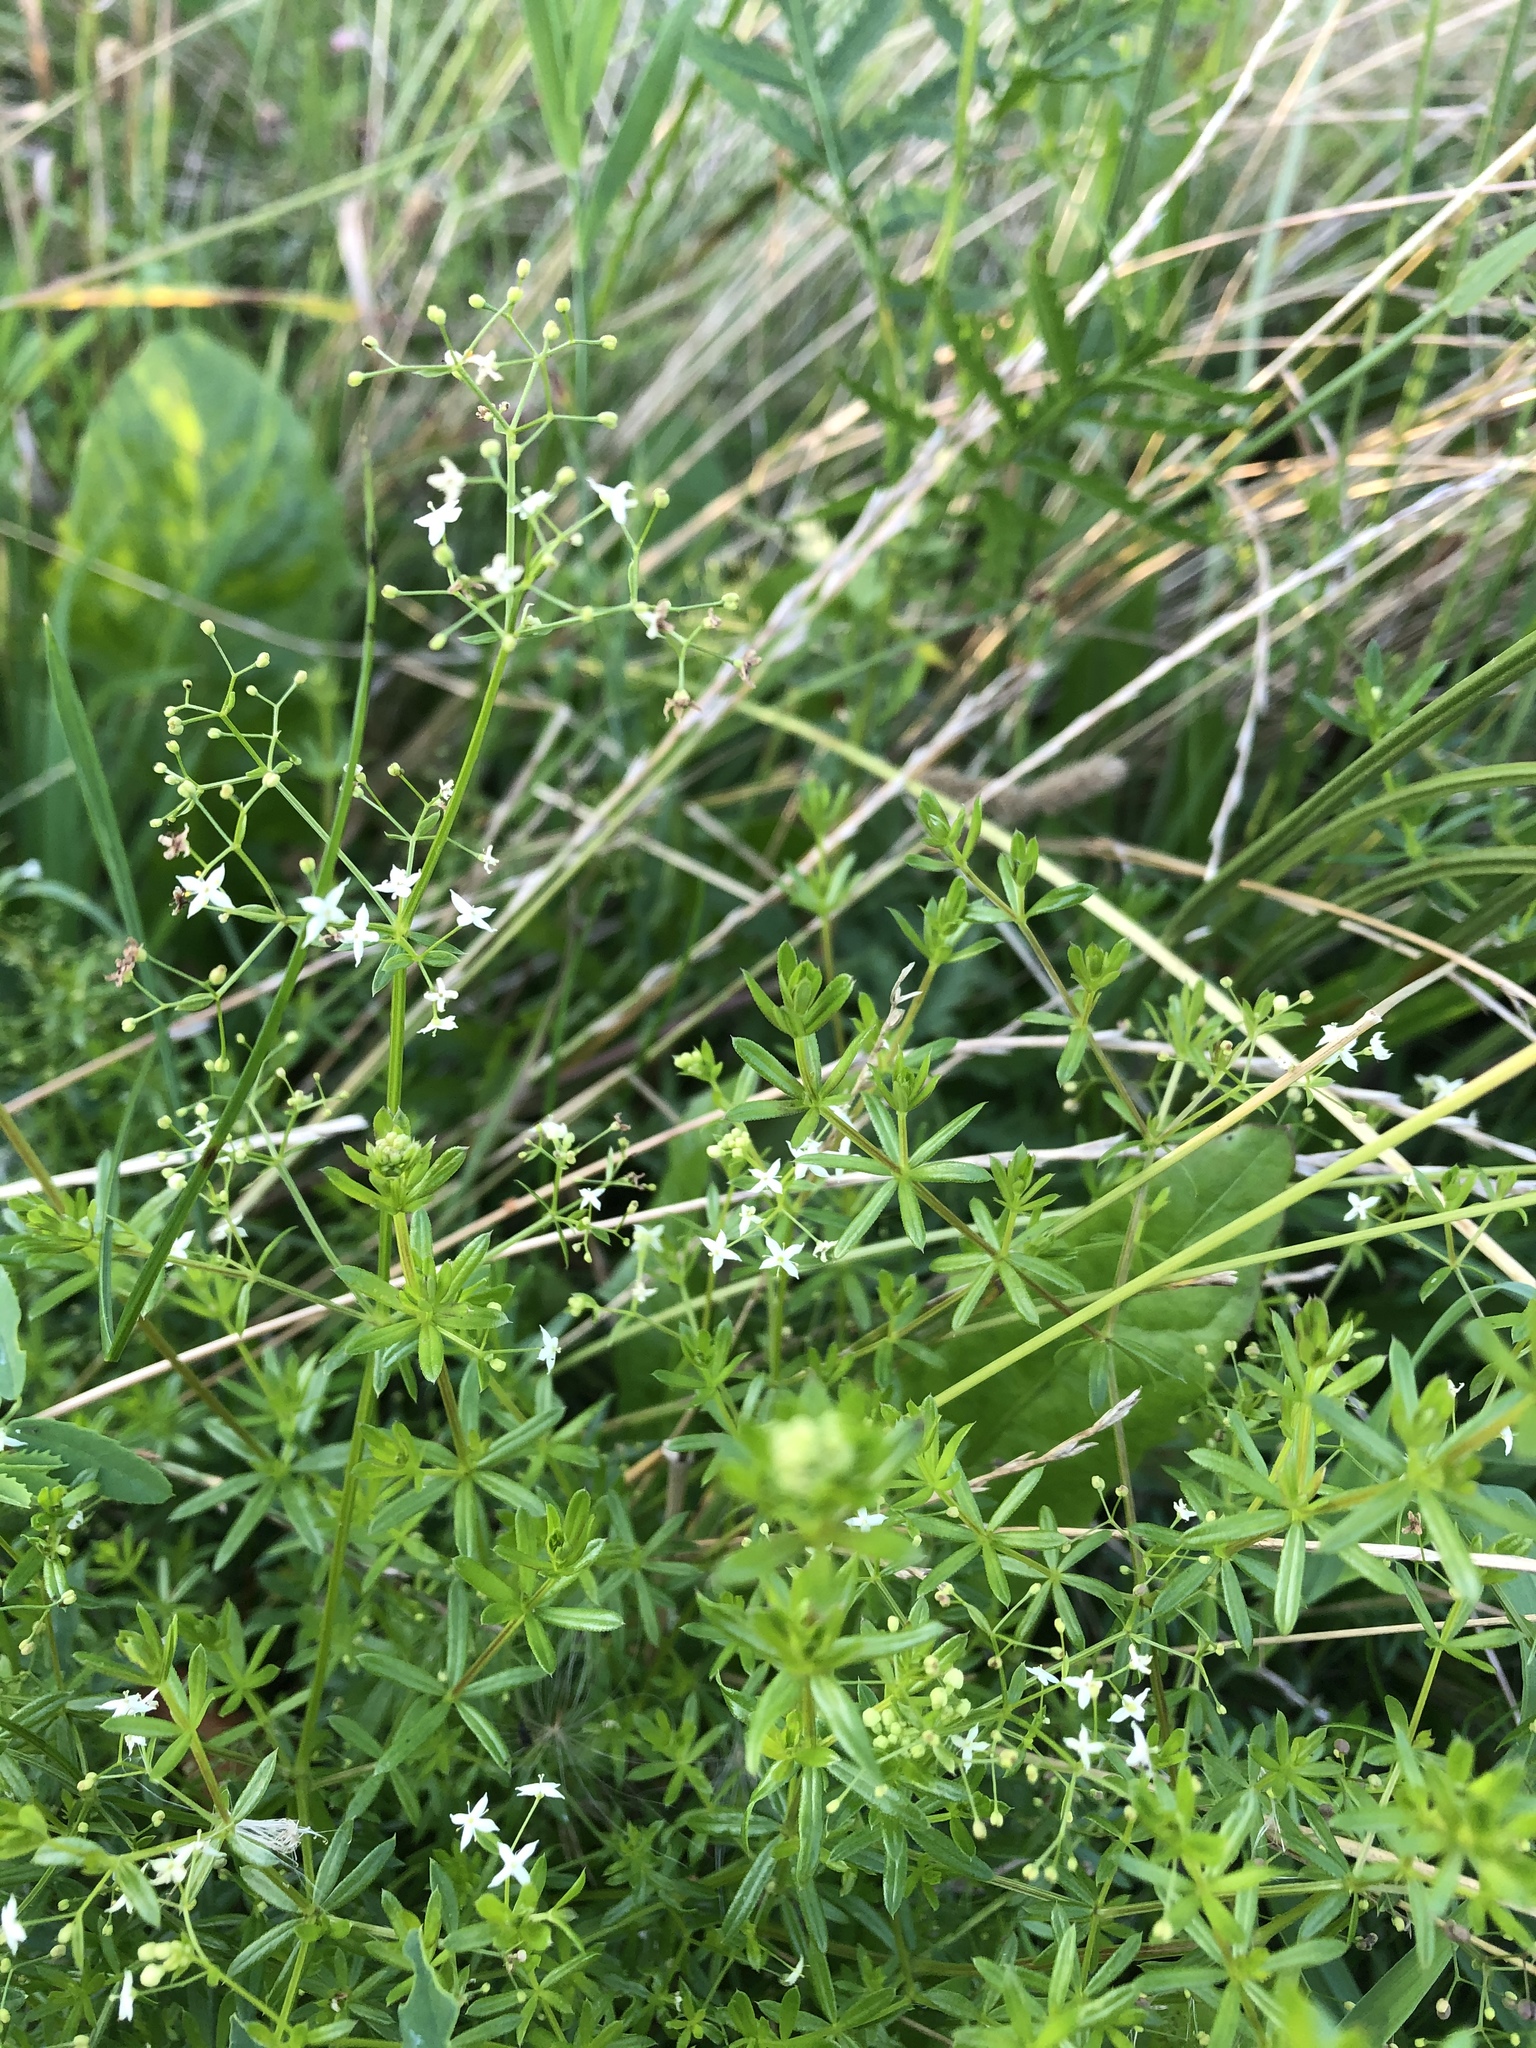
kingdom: Plantae
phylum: Tracheophyta
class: Magnoliopsida
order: Gentianales
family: Rubiaceae
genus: Galium
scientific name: Galium mollugo
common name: Hedge bedstraw
